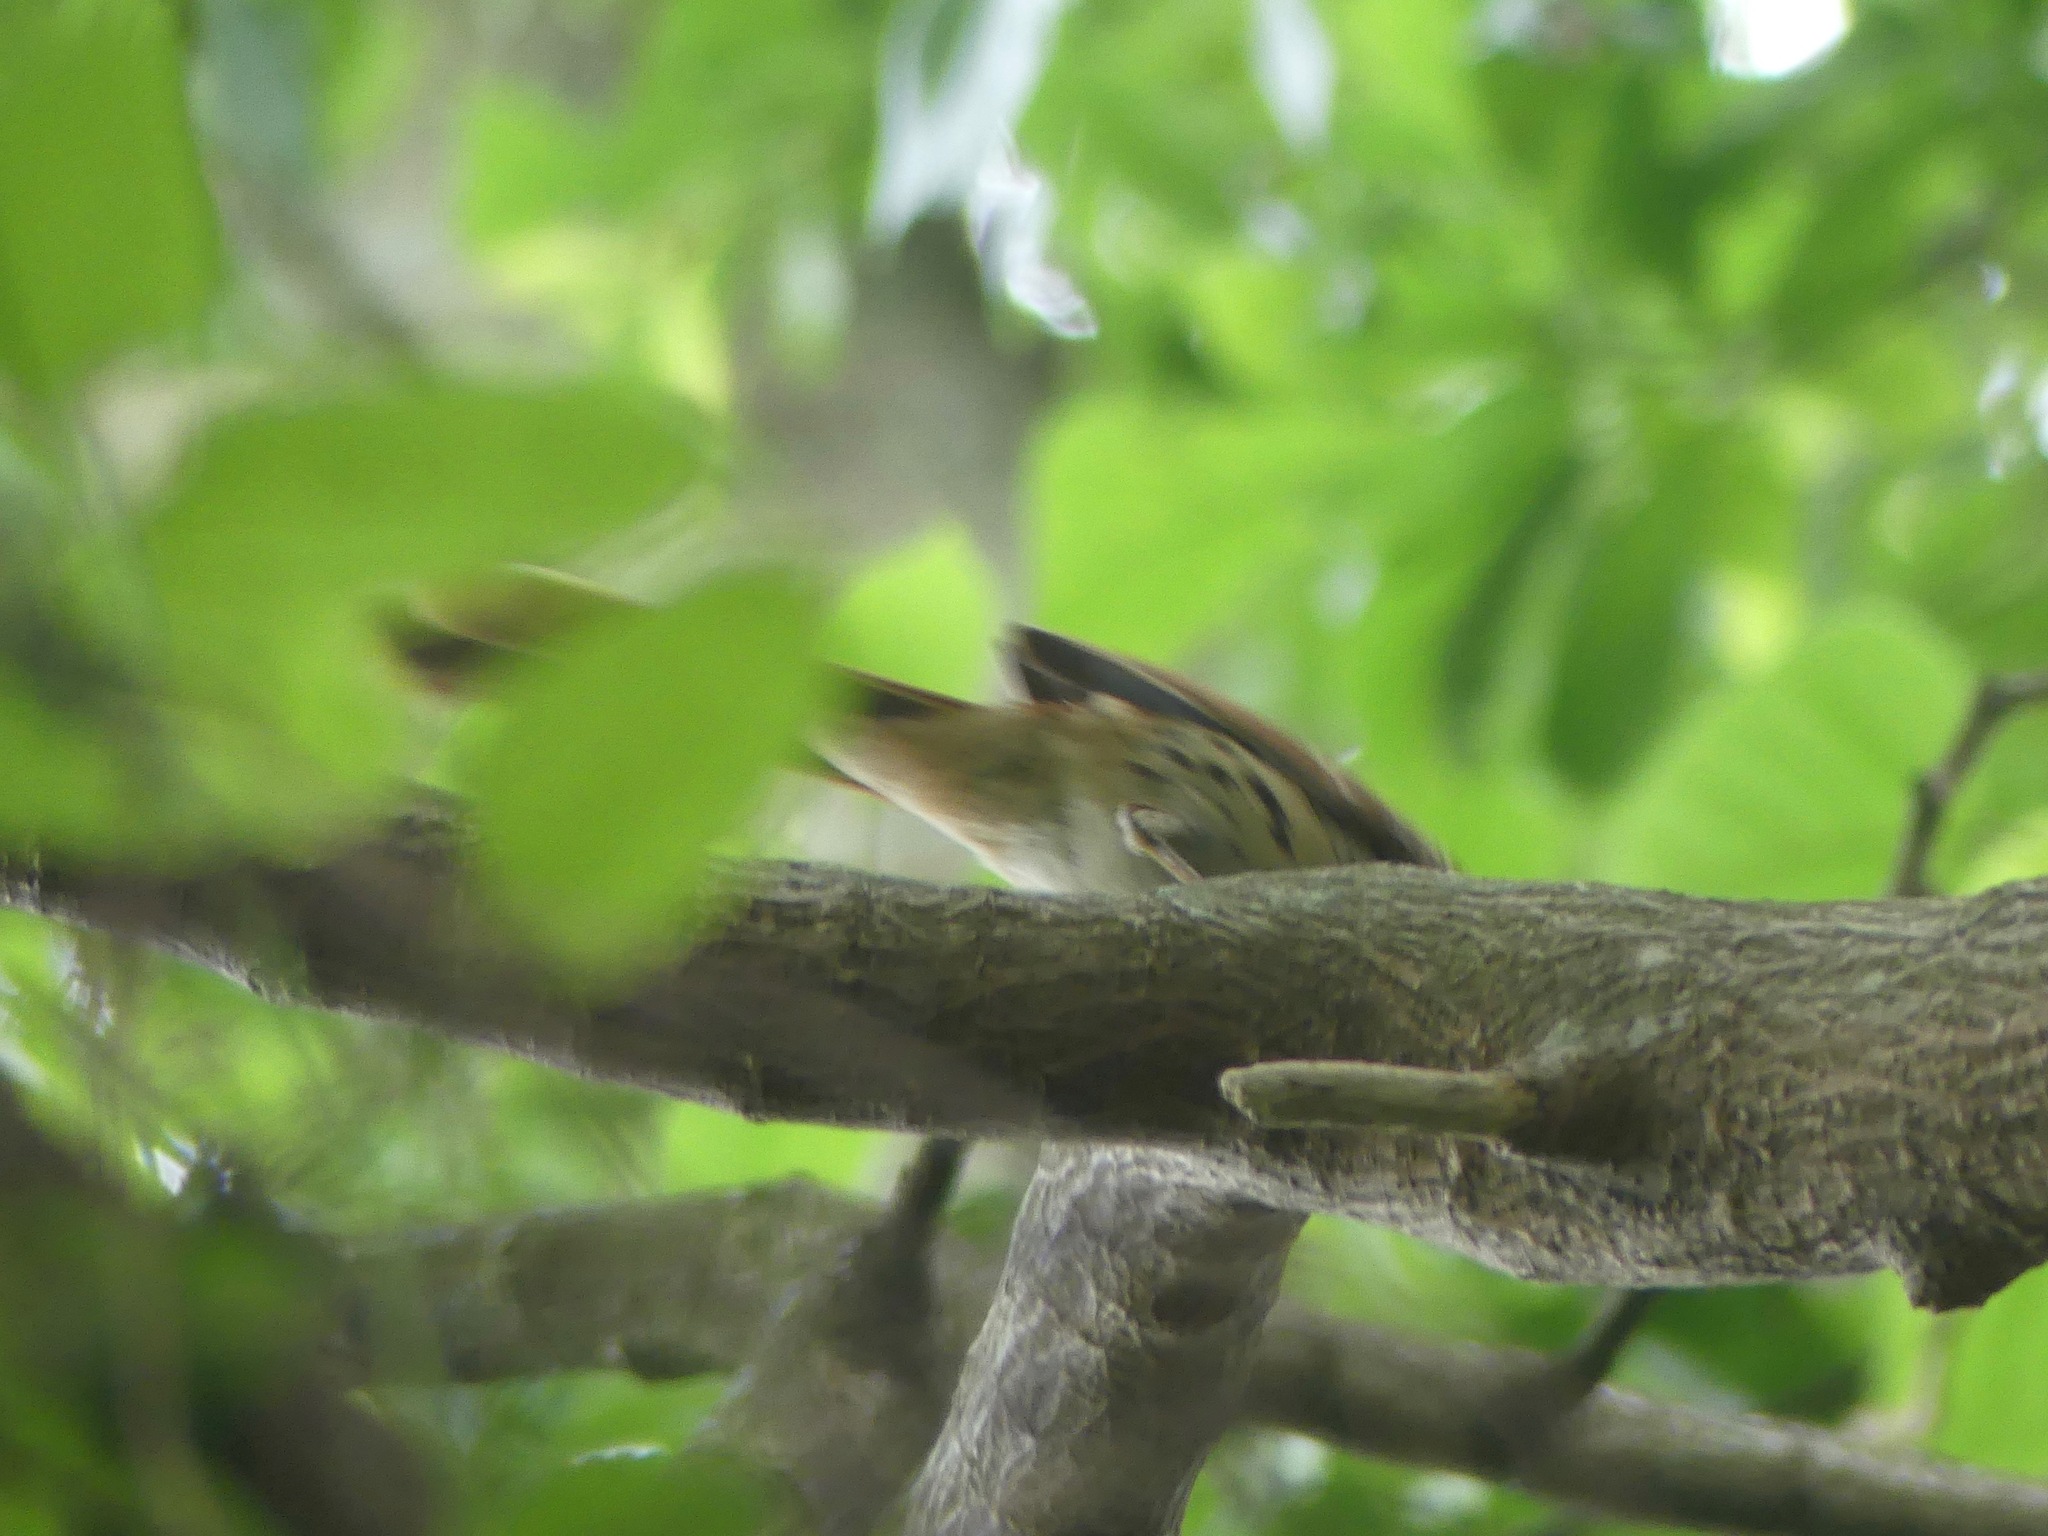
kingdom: Animalia
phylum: Chordata
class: Aves
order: Passeriformes
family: Mimidae
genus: Toxostoma
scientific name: Toxostoma rufum
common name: Brown thrasher
